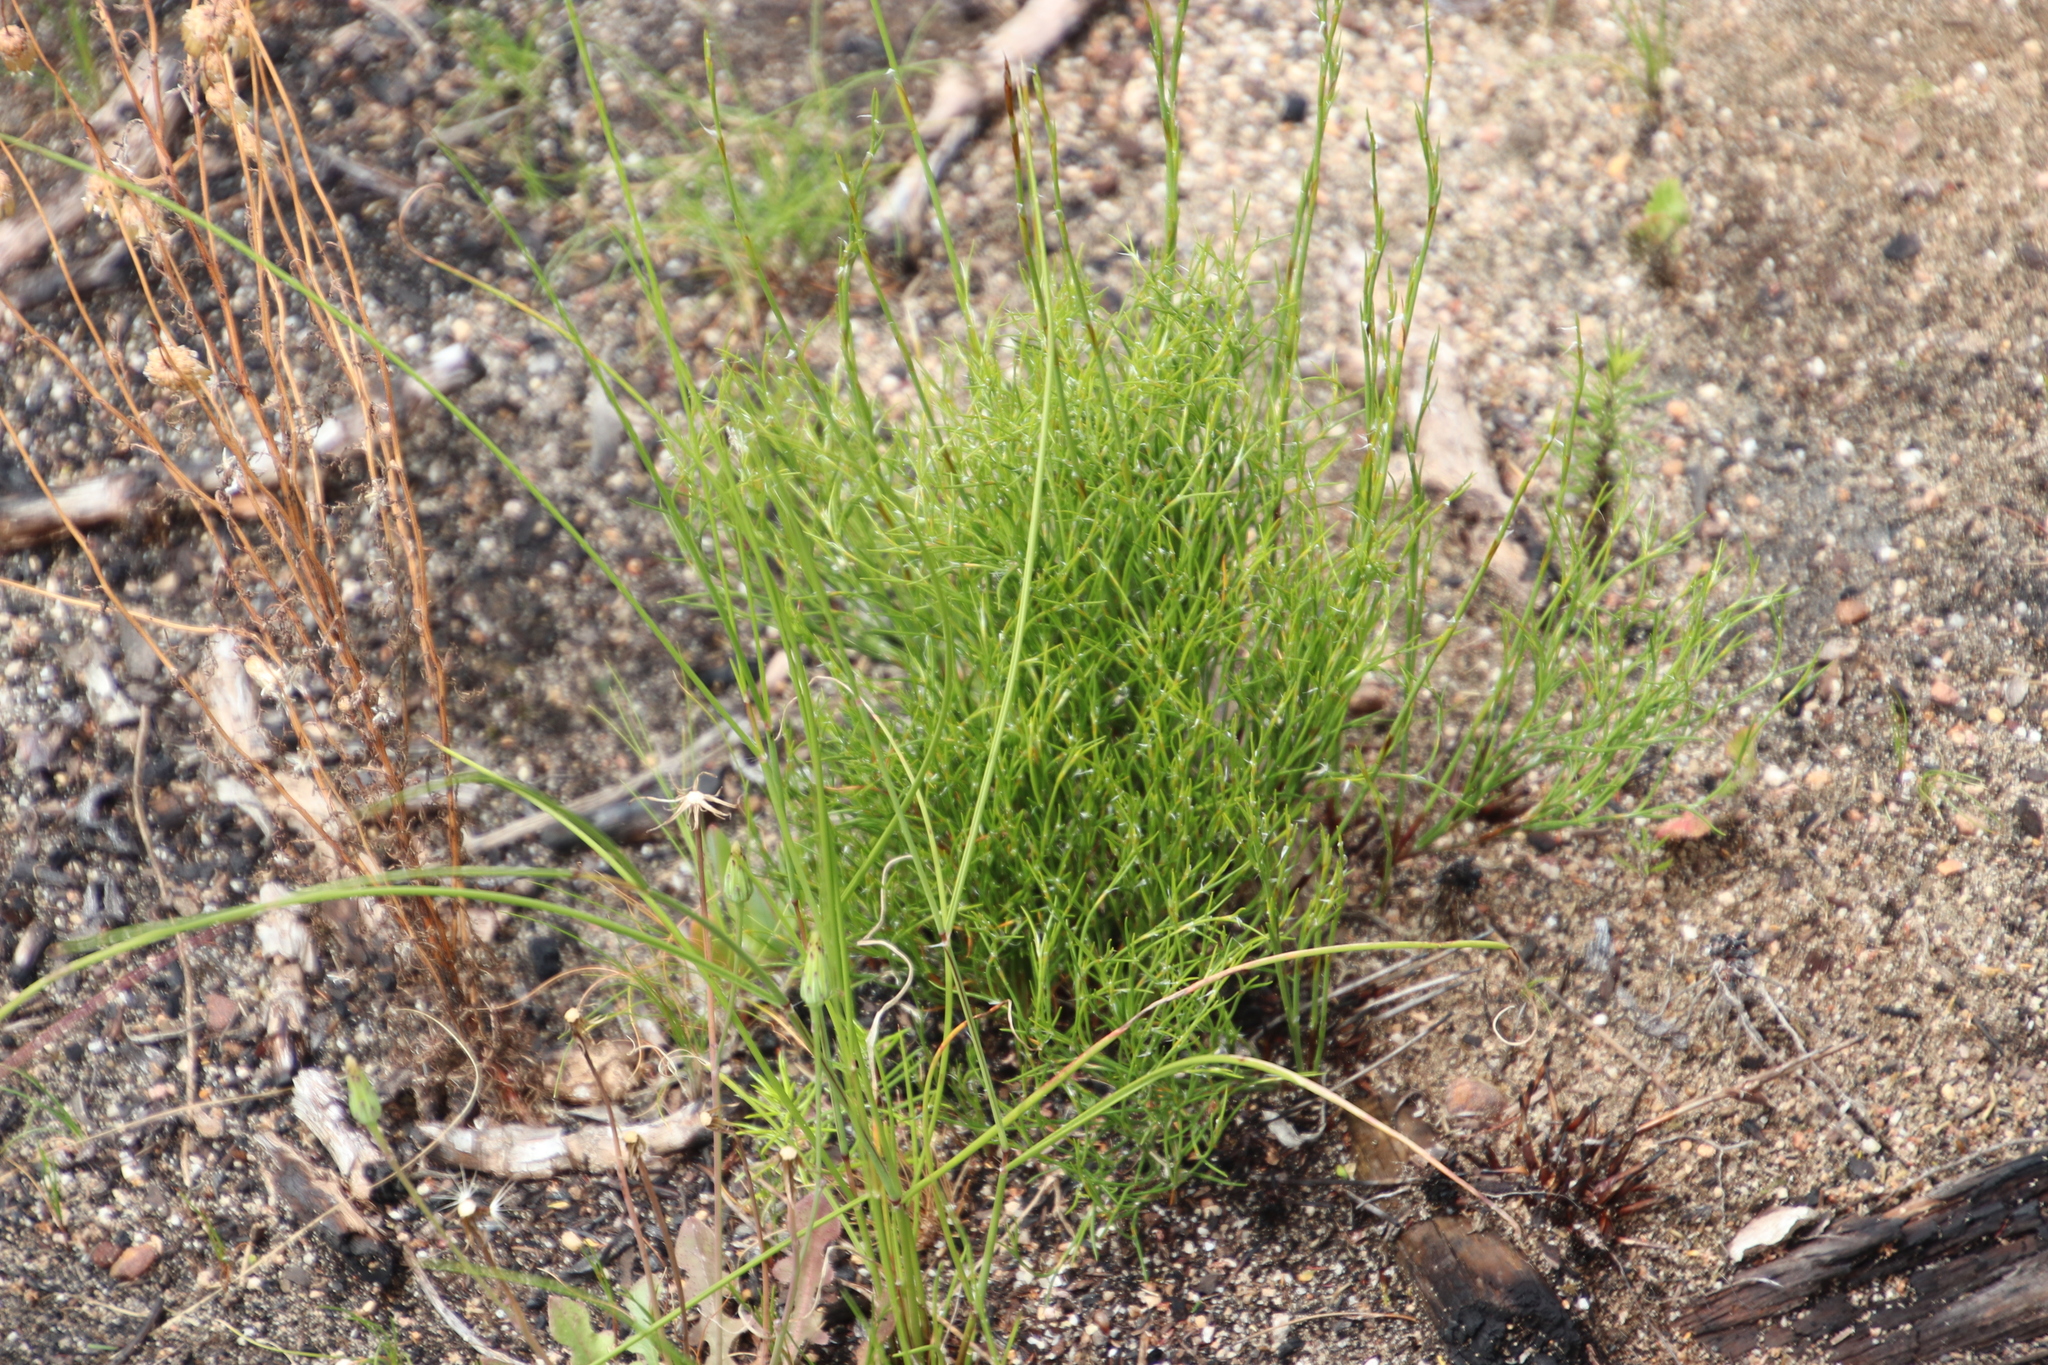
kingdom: Plantae
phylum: Tracheophyta
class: Liliopsida
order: Poales
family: Restionaceae
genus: Restio
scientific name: Restio capensis
